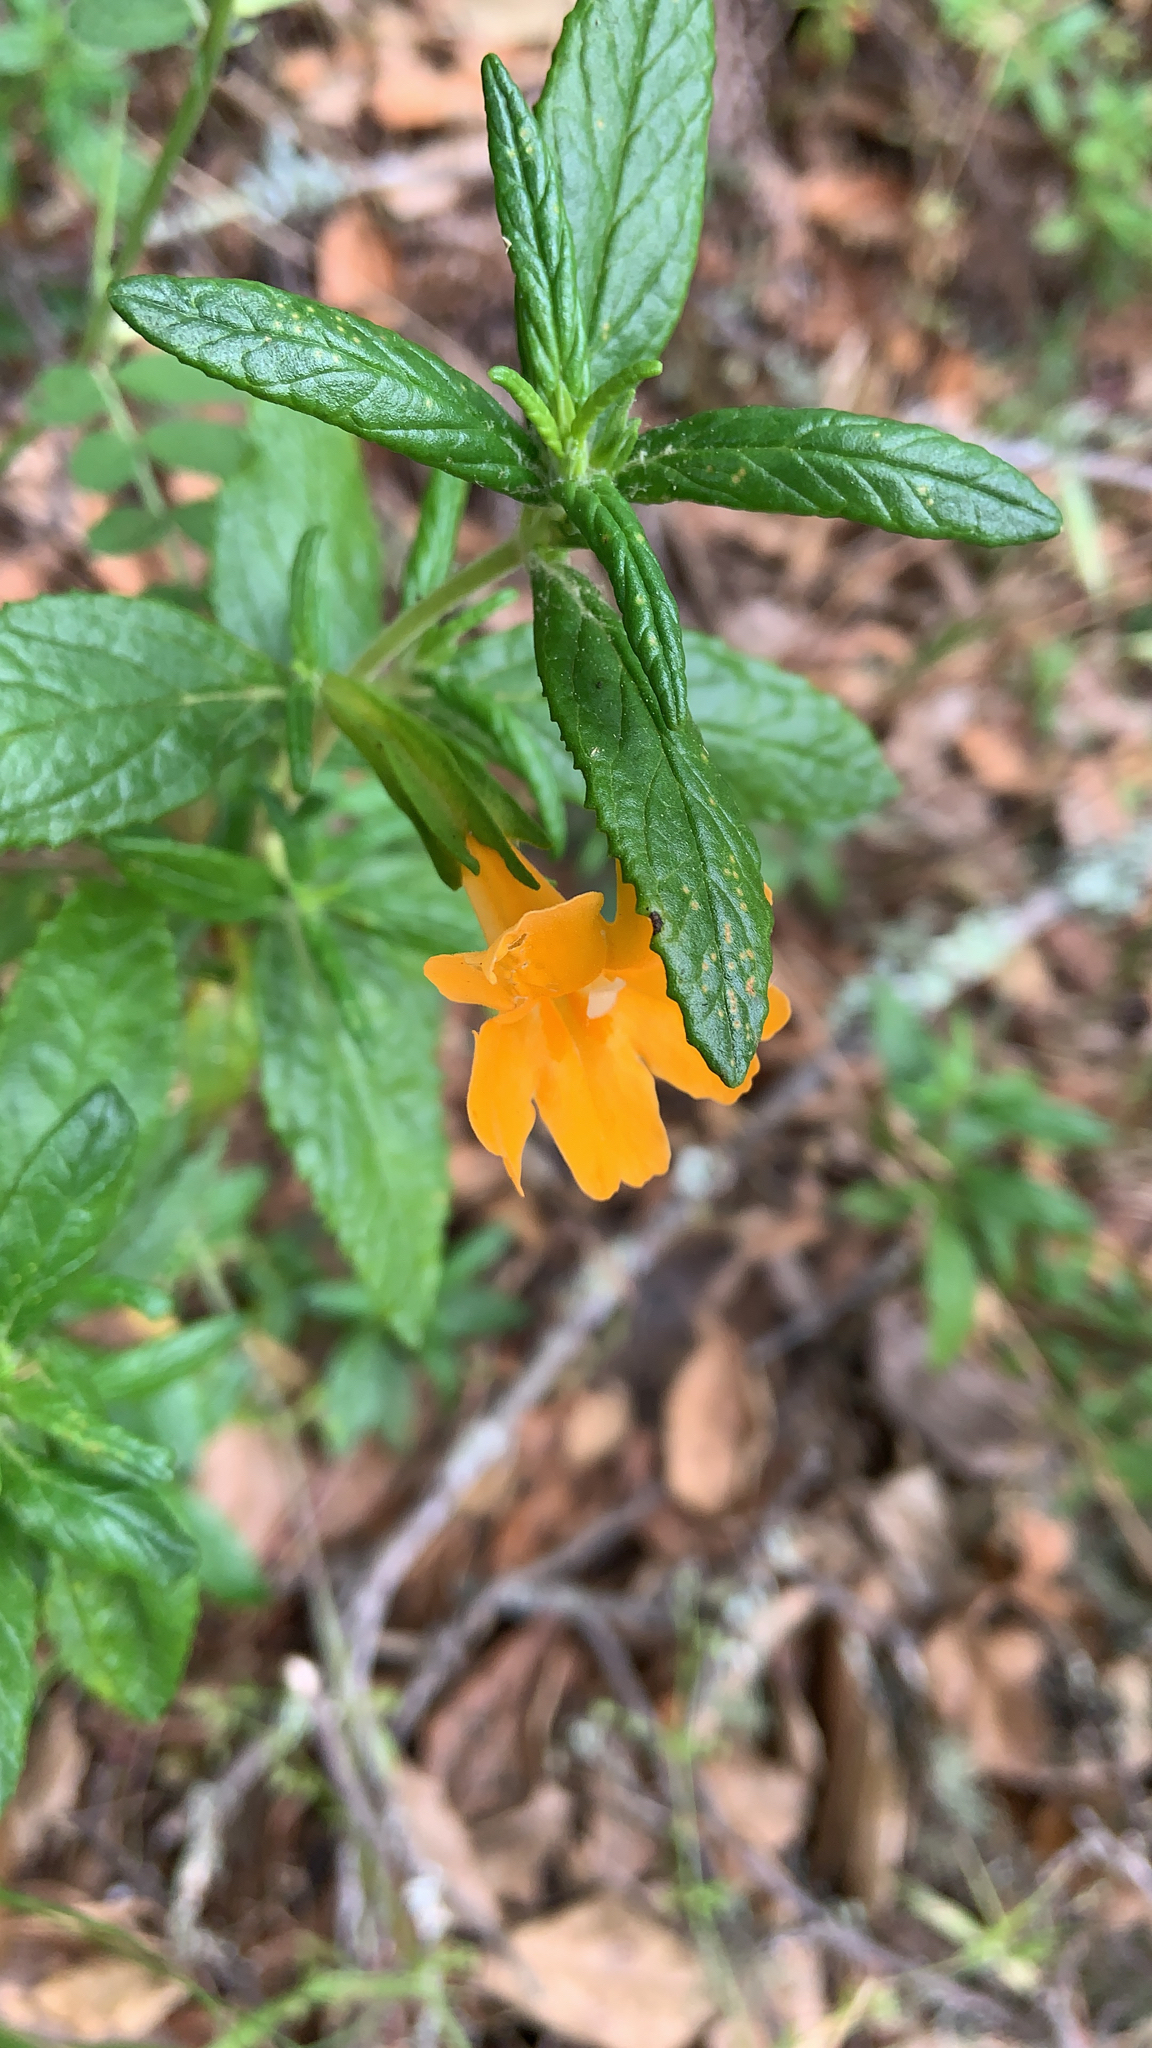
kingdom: Plantae
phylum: Tracheophyta
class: Magnoliopsida
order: Lamiales
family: Phrymaceae
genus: Diplacus
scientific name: Diplacus aurantiacus
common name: Bush monkey-flower
